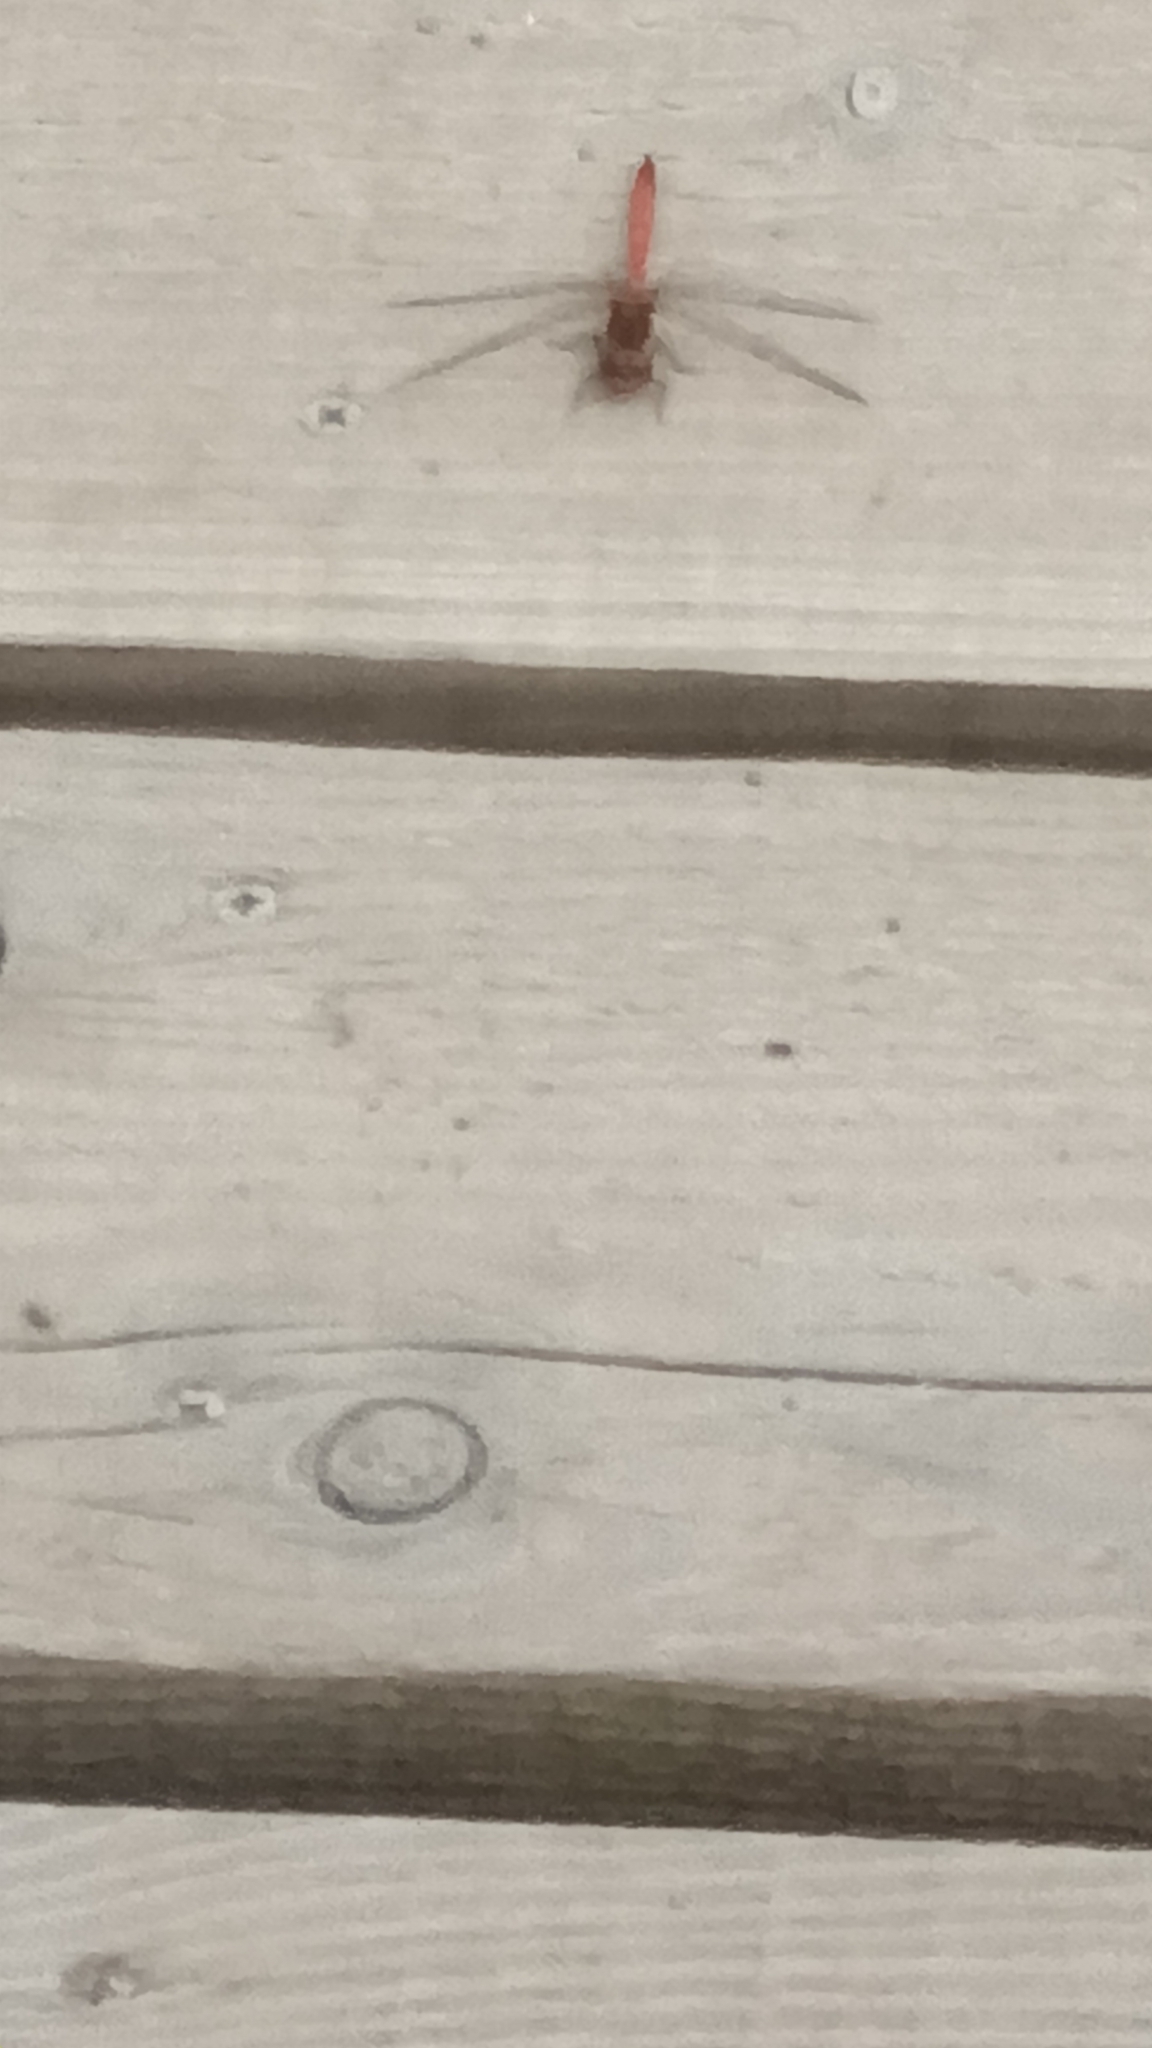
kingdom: Animalia
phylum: Arthropoda
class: Insecta
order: Odonata
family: Libellulidae
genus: Sympetrum
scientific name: Sympetrum striolatum
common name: Common darter
